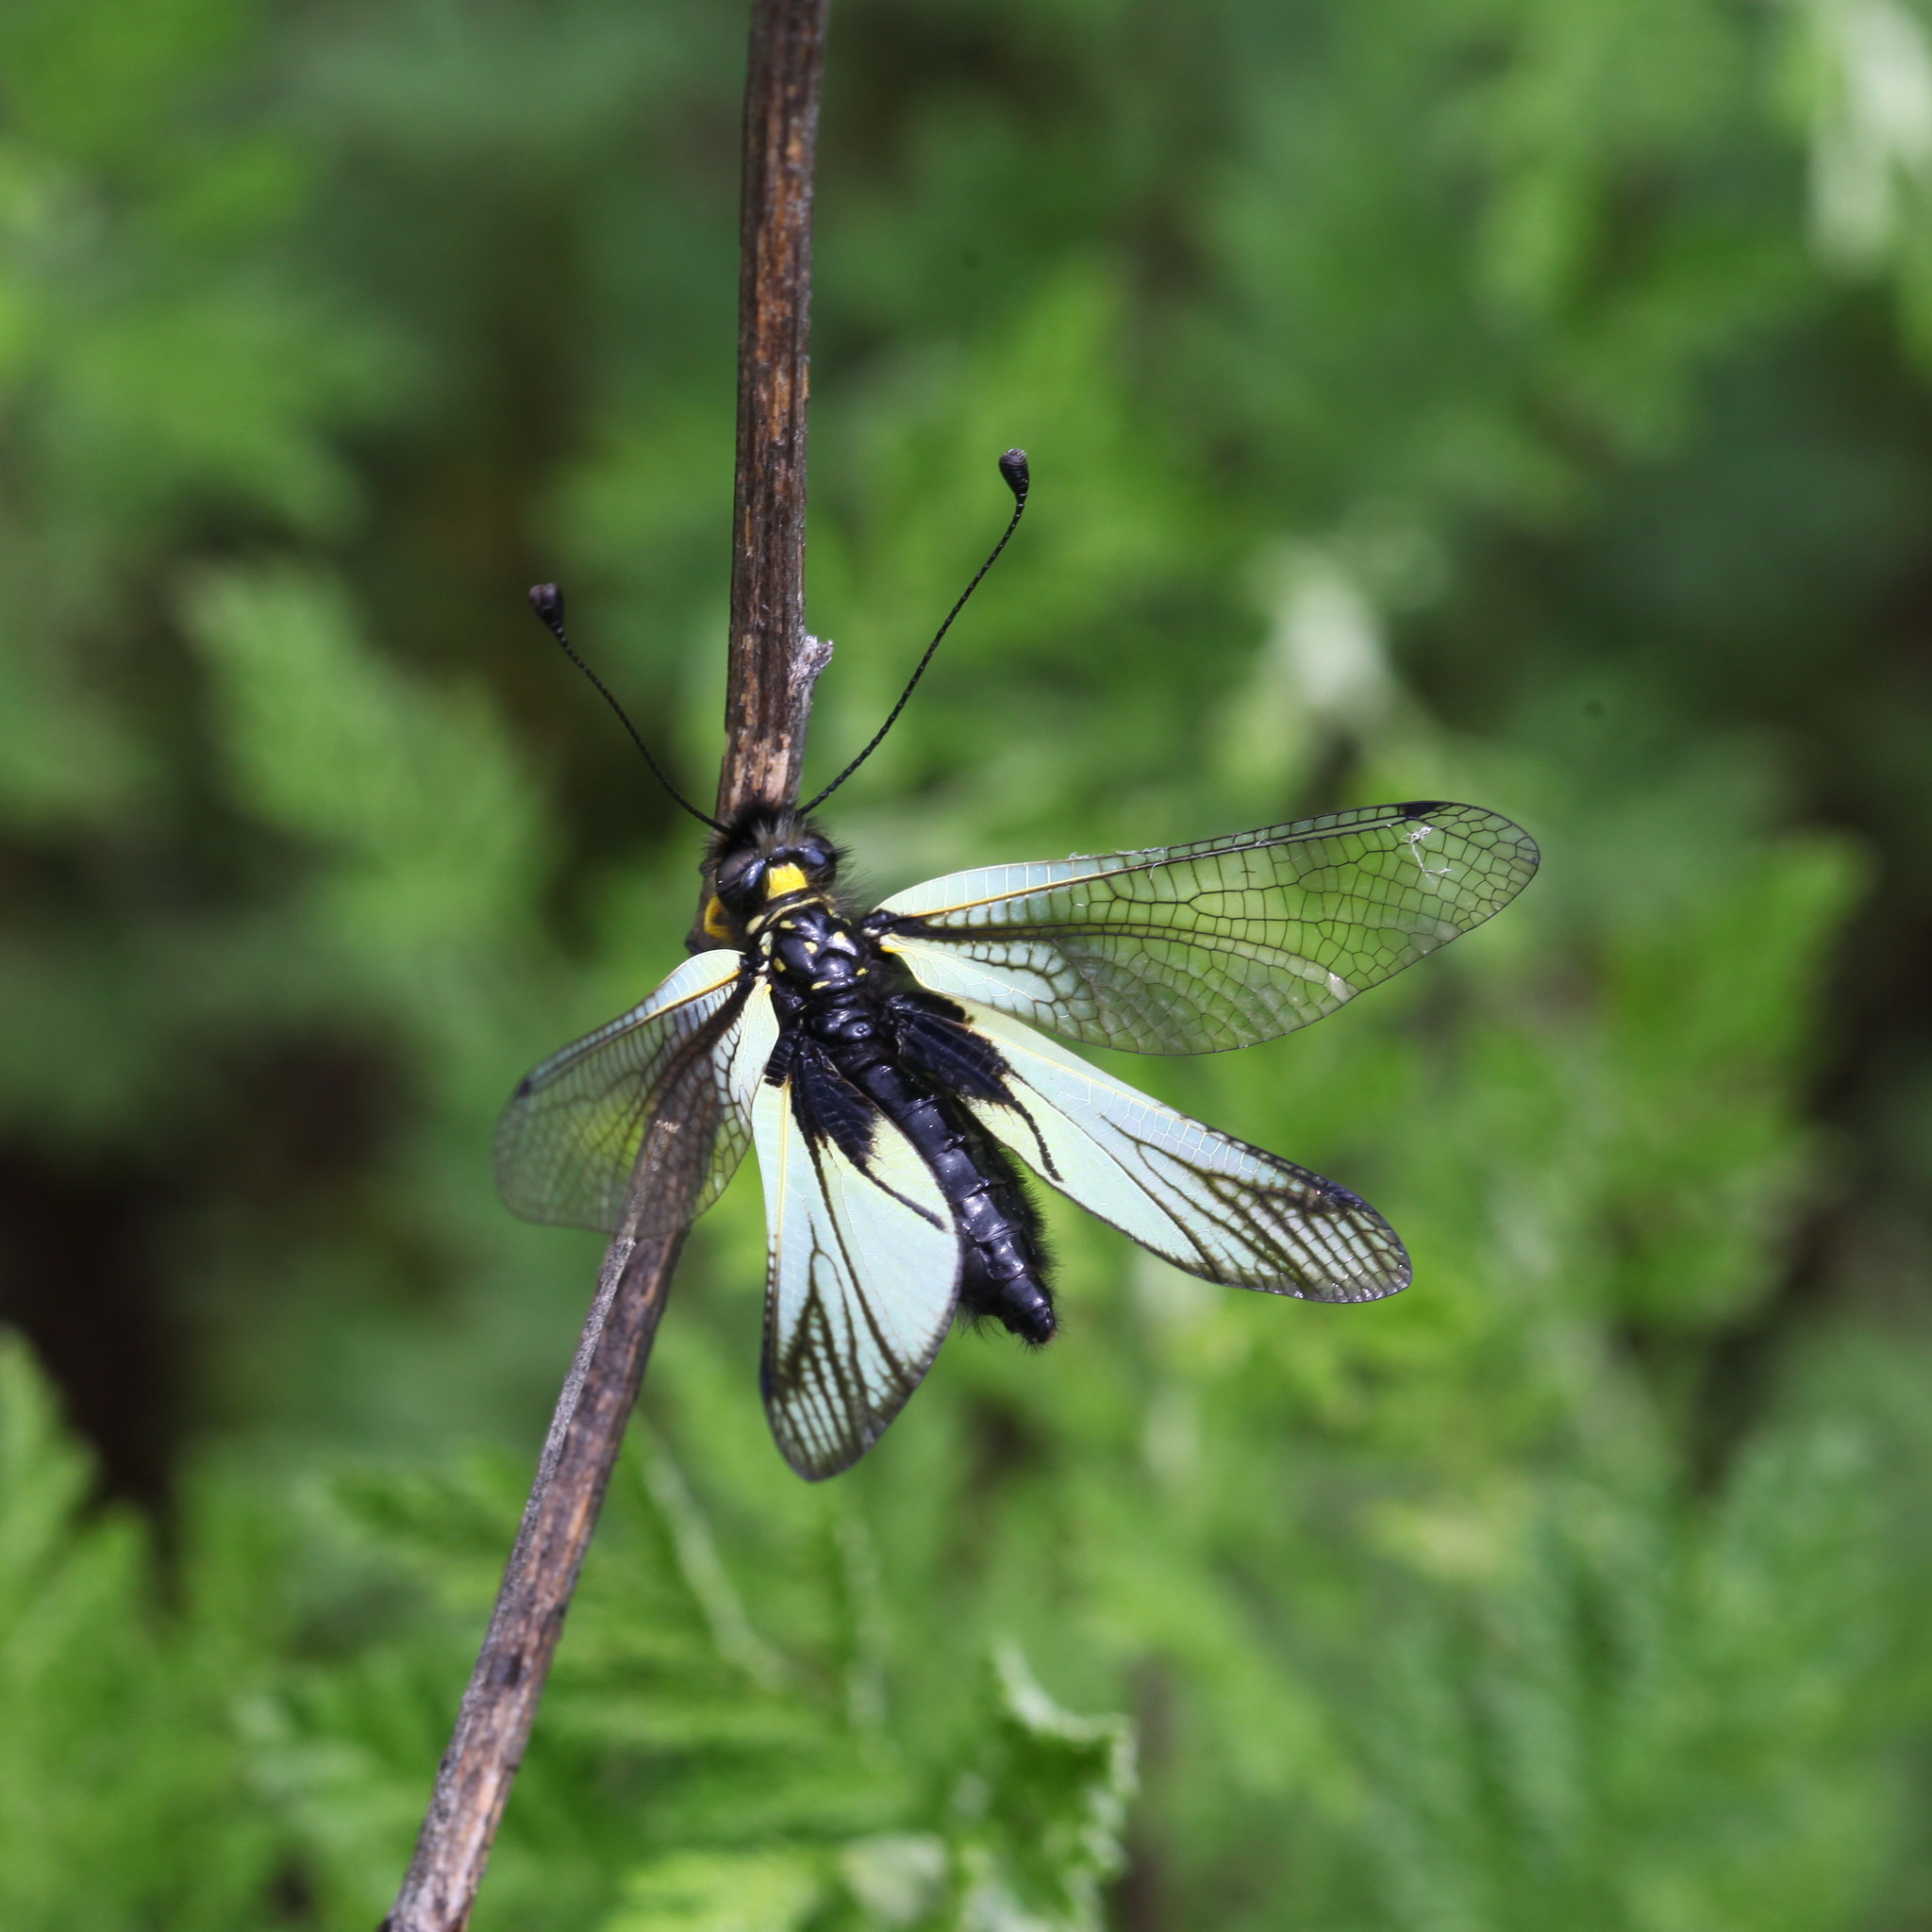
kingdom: Animalia
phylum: Arthropoda
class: Insecta
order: Neuroptera
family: Ascalaphidae
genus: Libelloides
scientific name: Libelloides sibiricus
